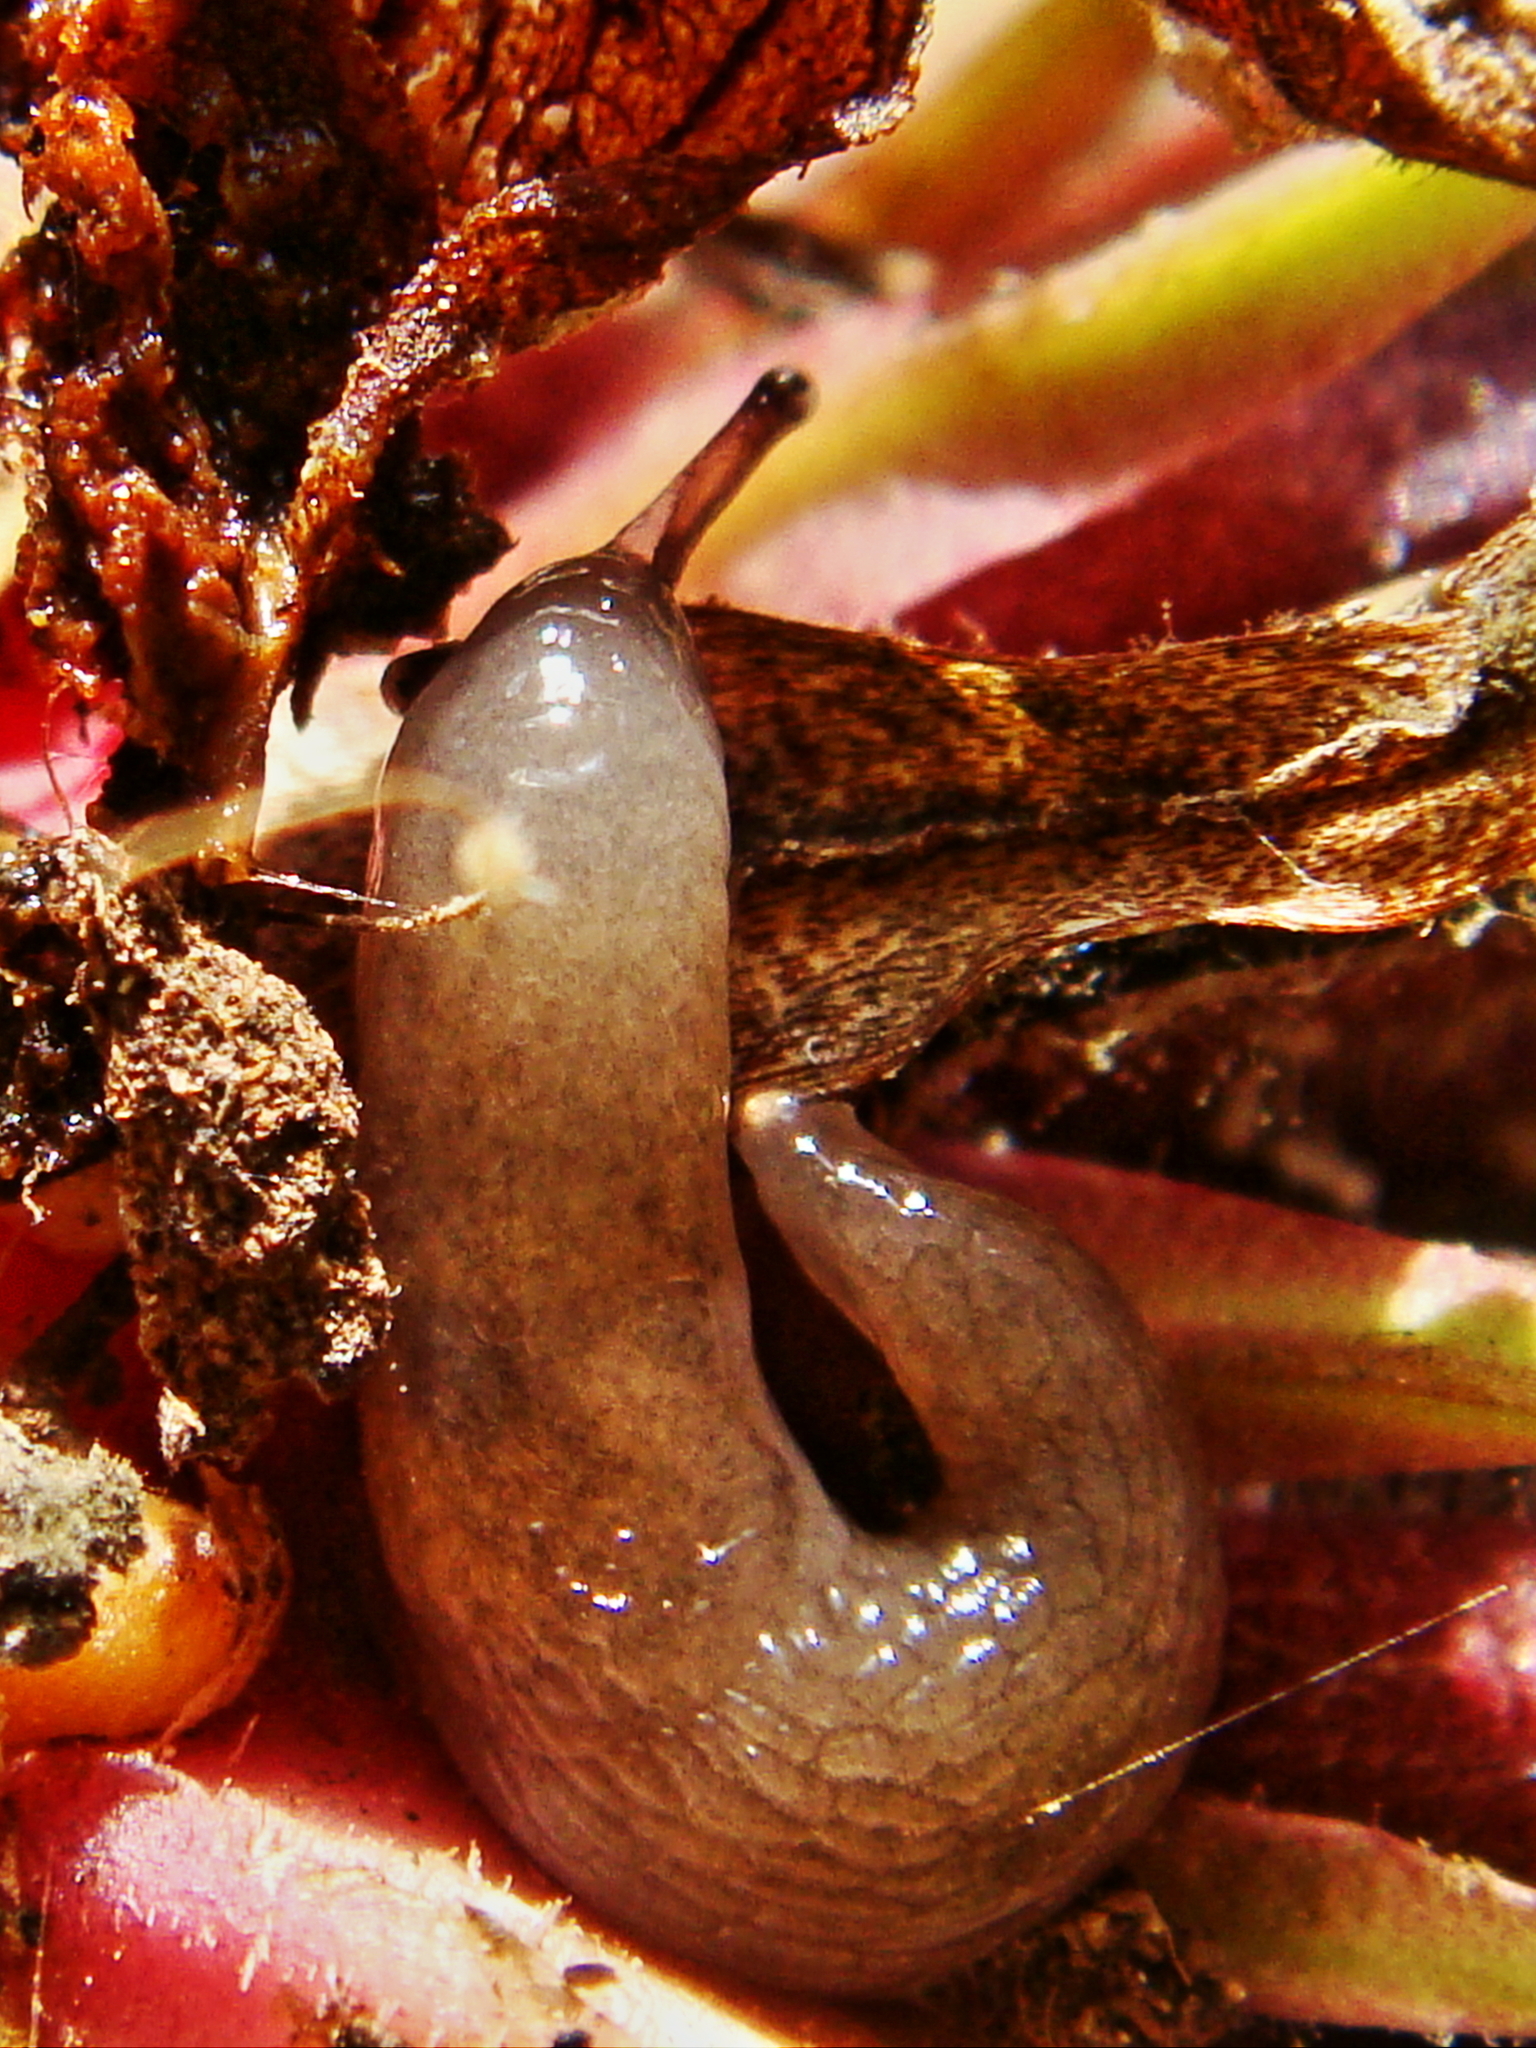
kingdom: Animalia
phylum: Mollusca
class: Gastropoda
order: Stylommatophora
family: Agriolimacidae
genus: Deroceras
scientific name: Deroceras invadens
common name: Caruana's slug
